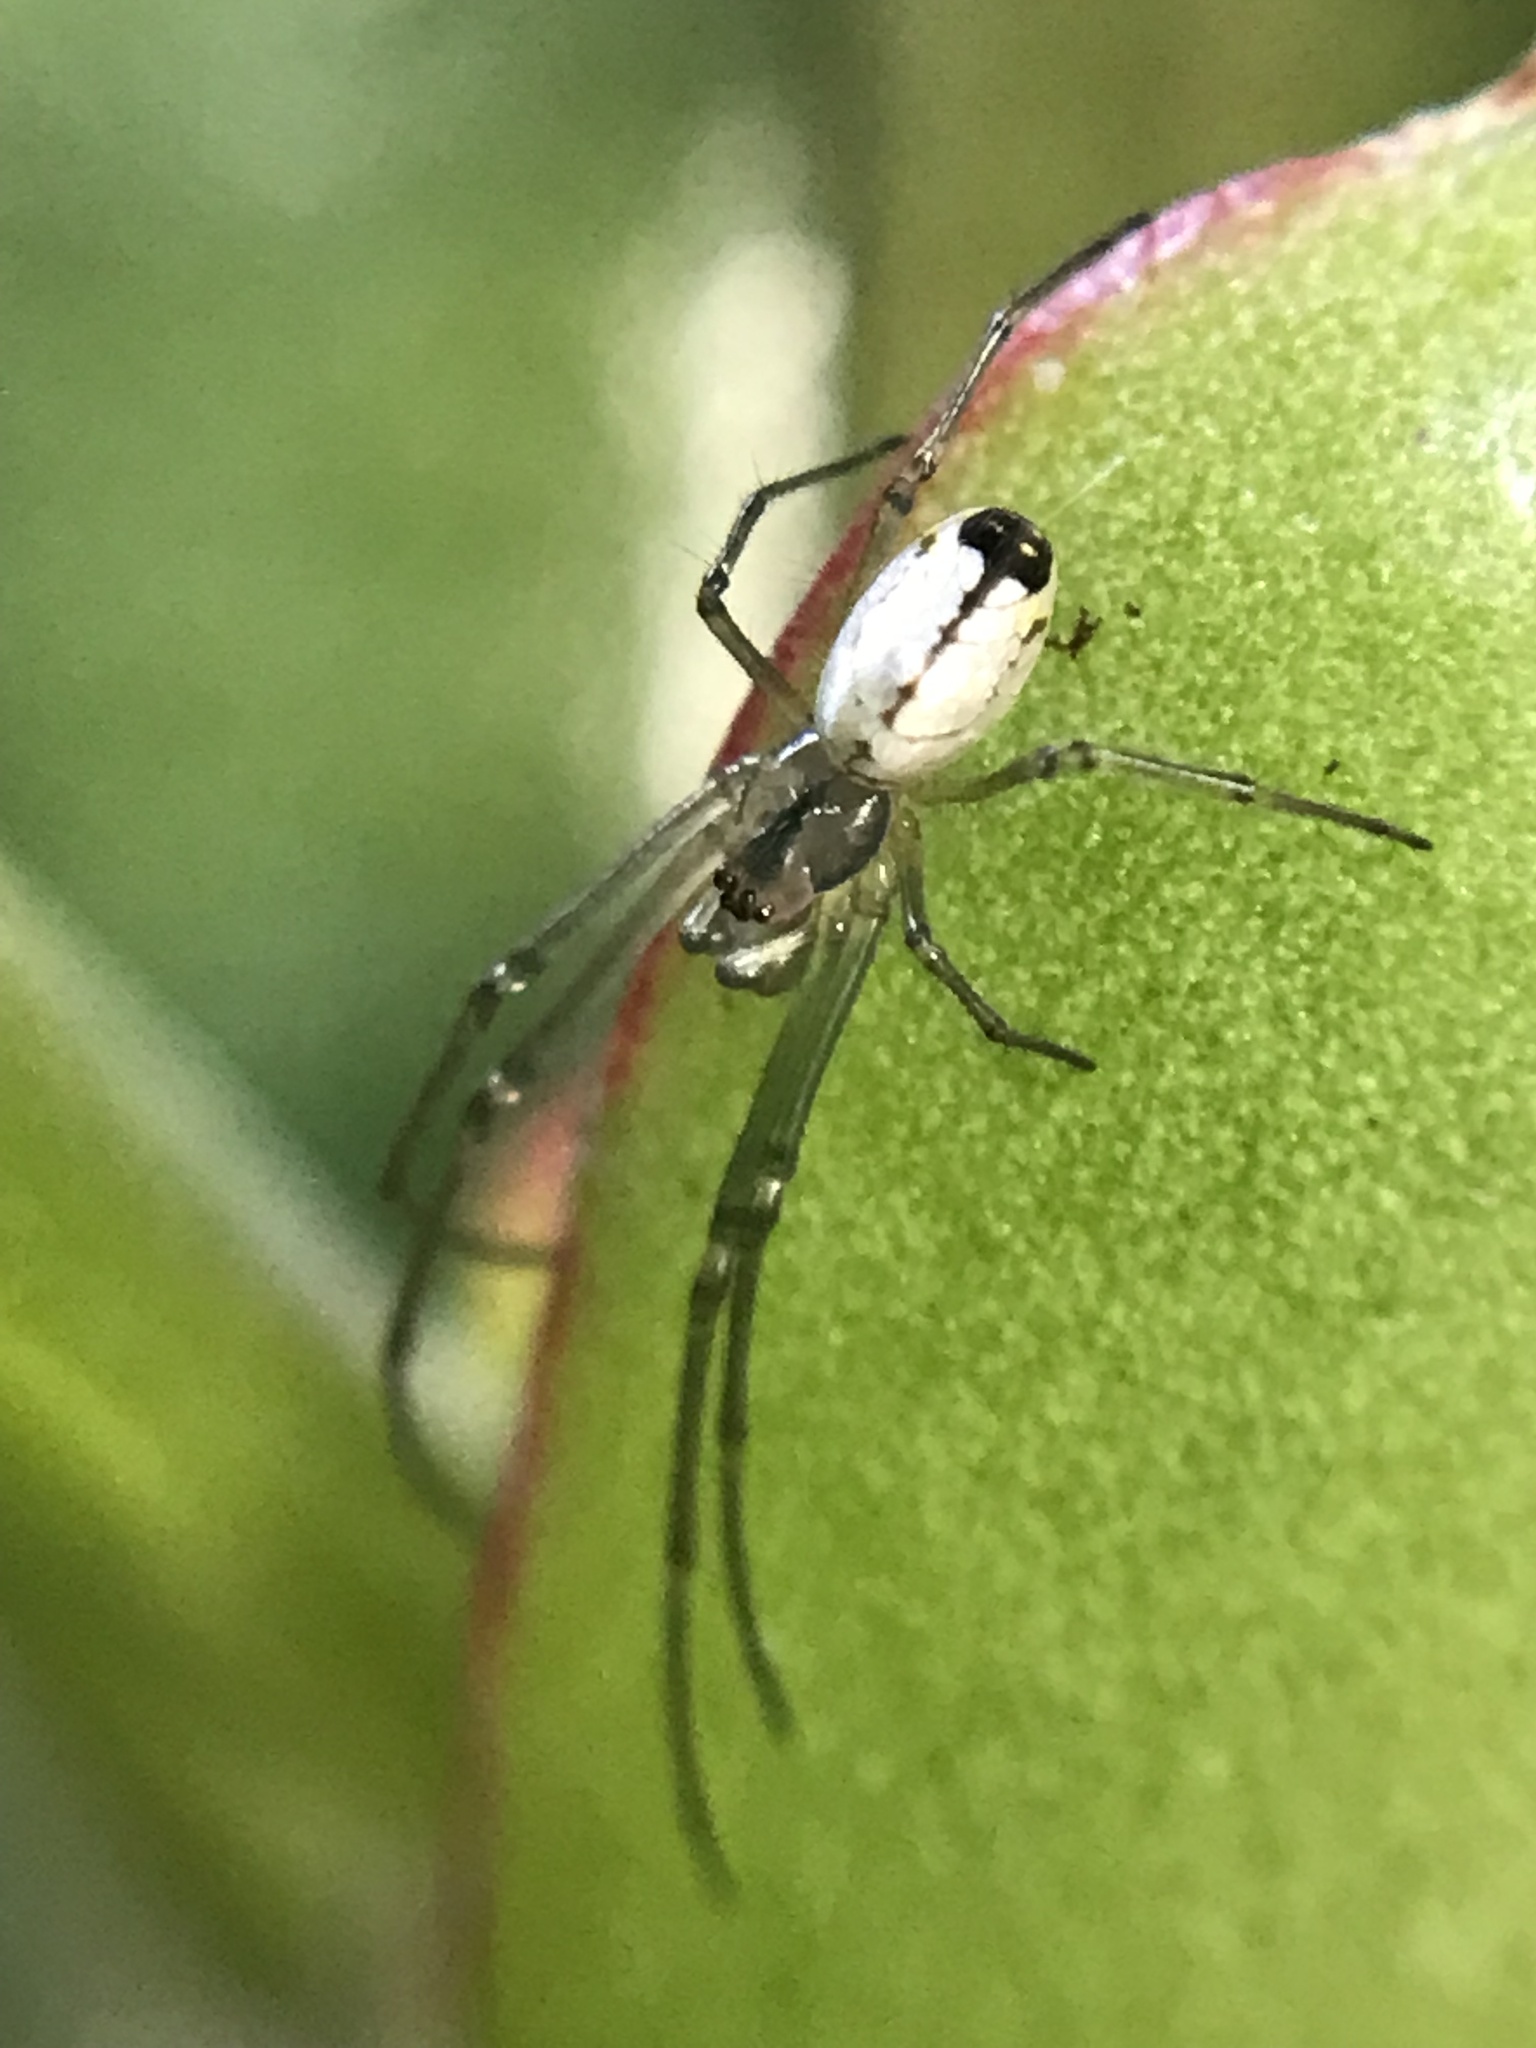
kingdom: Animalia
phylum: Arthropoda
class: Arachnida
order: Araneae
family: Tetragnathidae
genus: Leucauge
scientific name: Leucauge volupis
